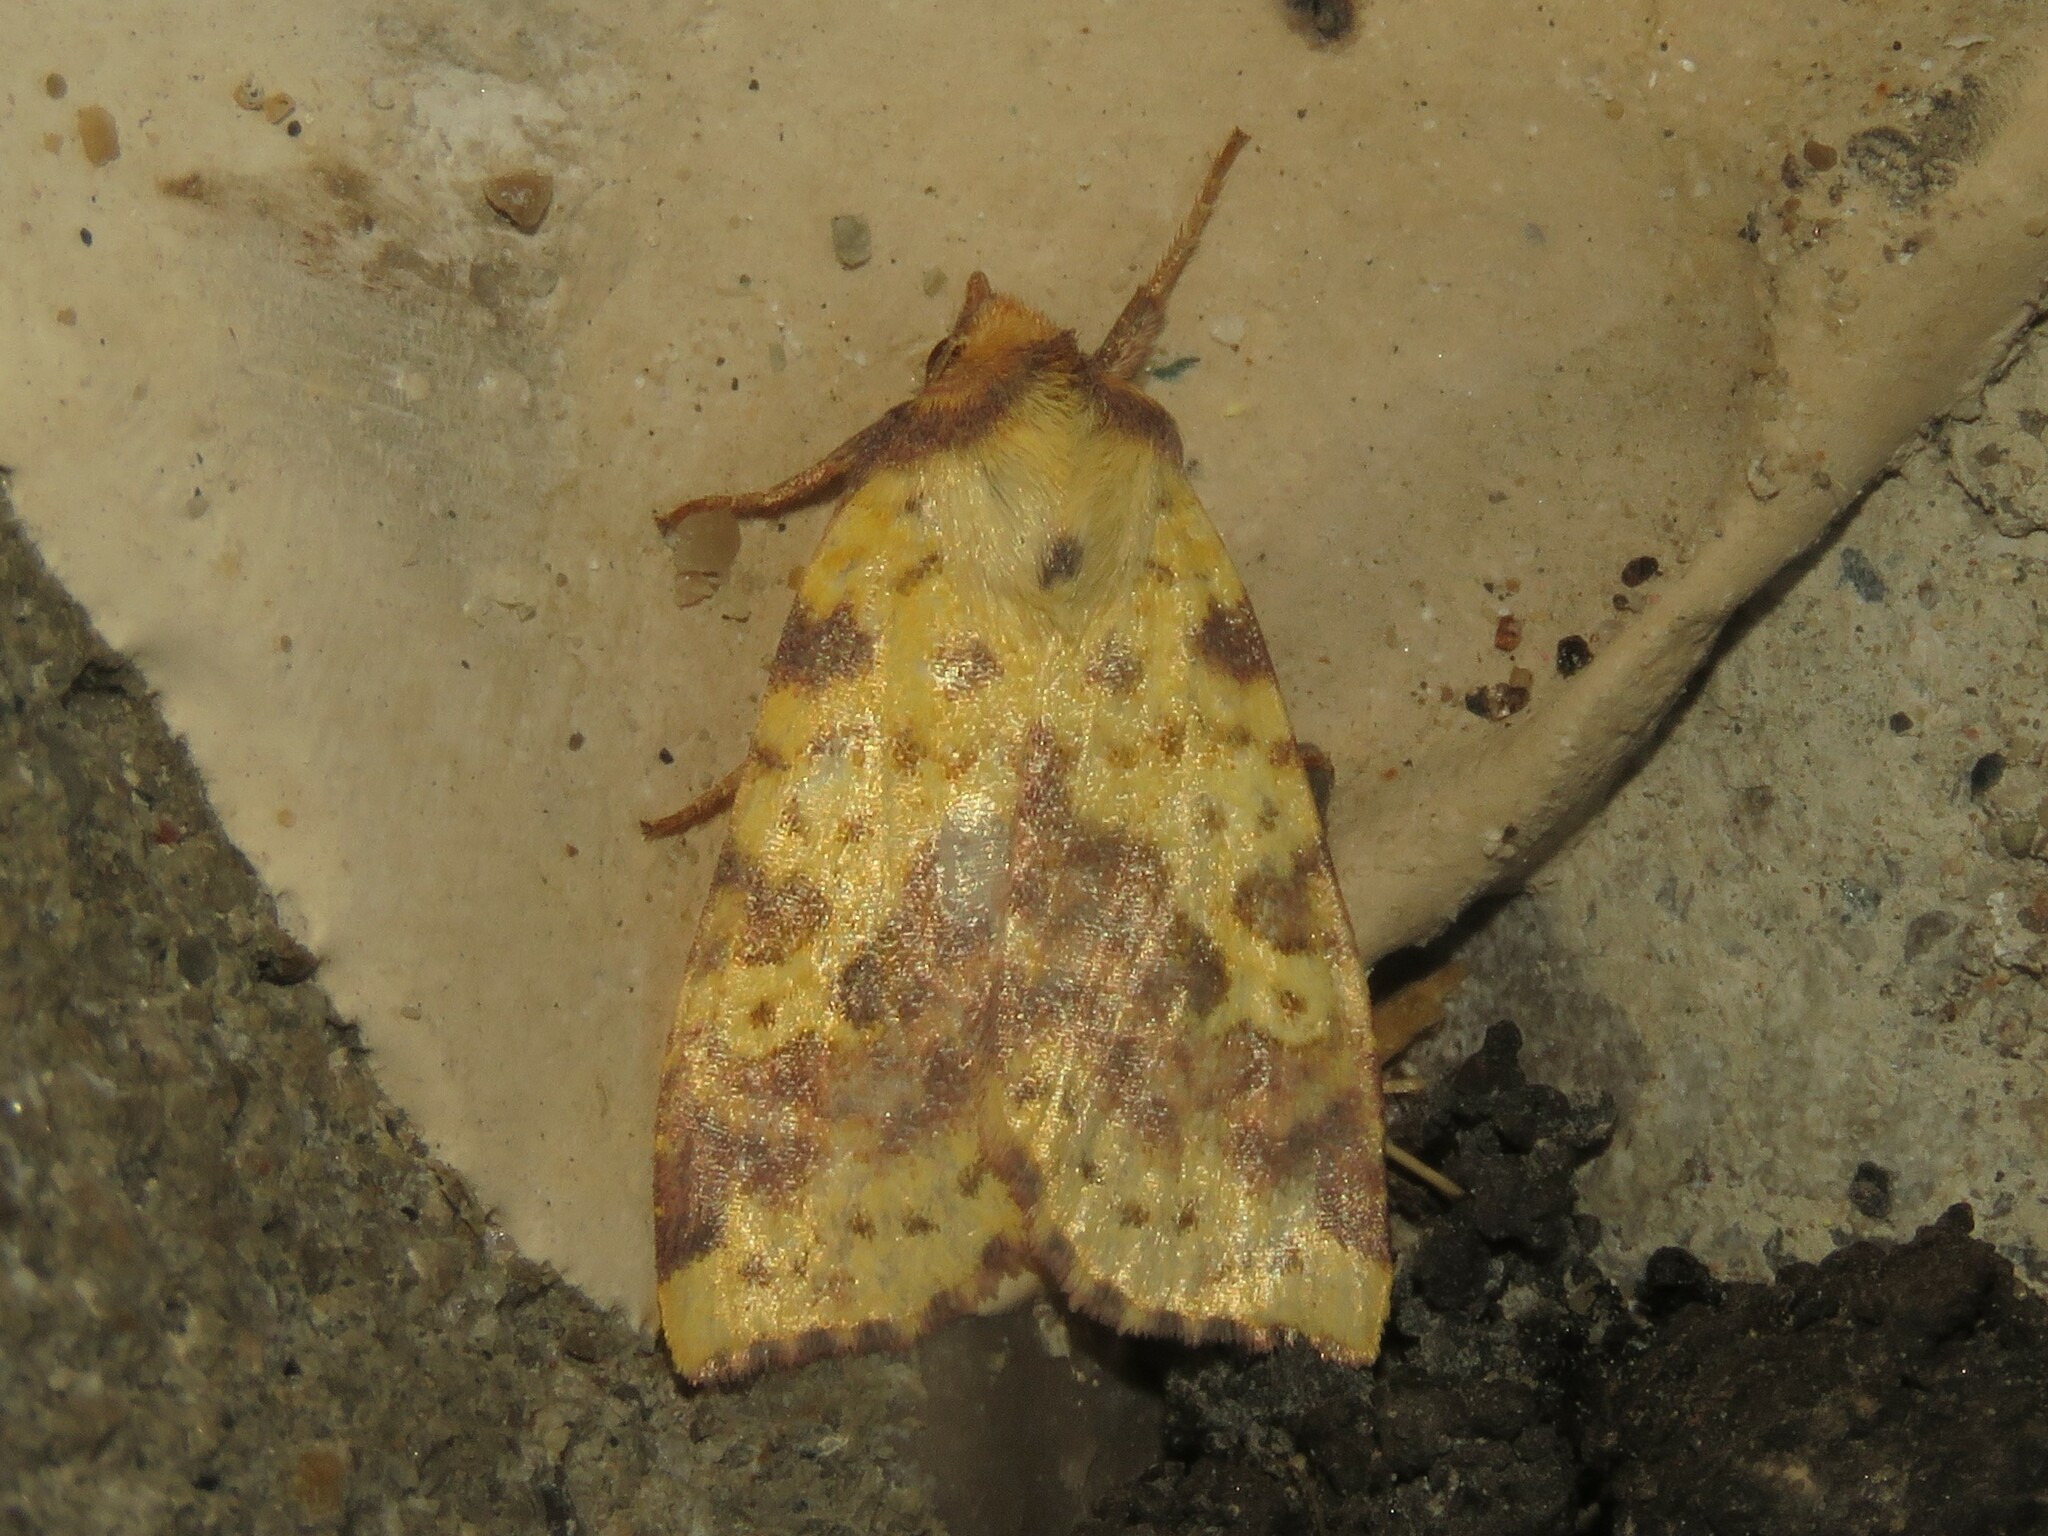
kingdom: Animalia
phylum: Arthropoda
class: Insecta
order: Lepidoptera
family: Noctuidae
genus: Xanthia
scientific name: Xanthia tatago
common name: Pink-banded sallow
